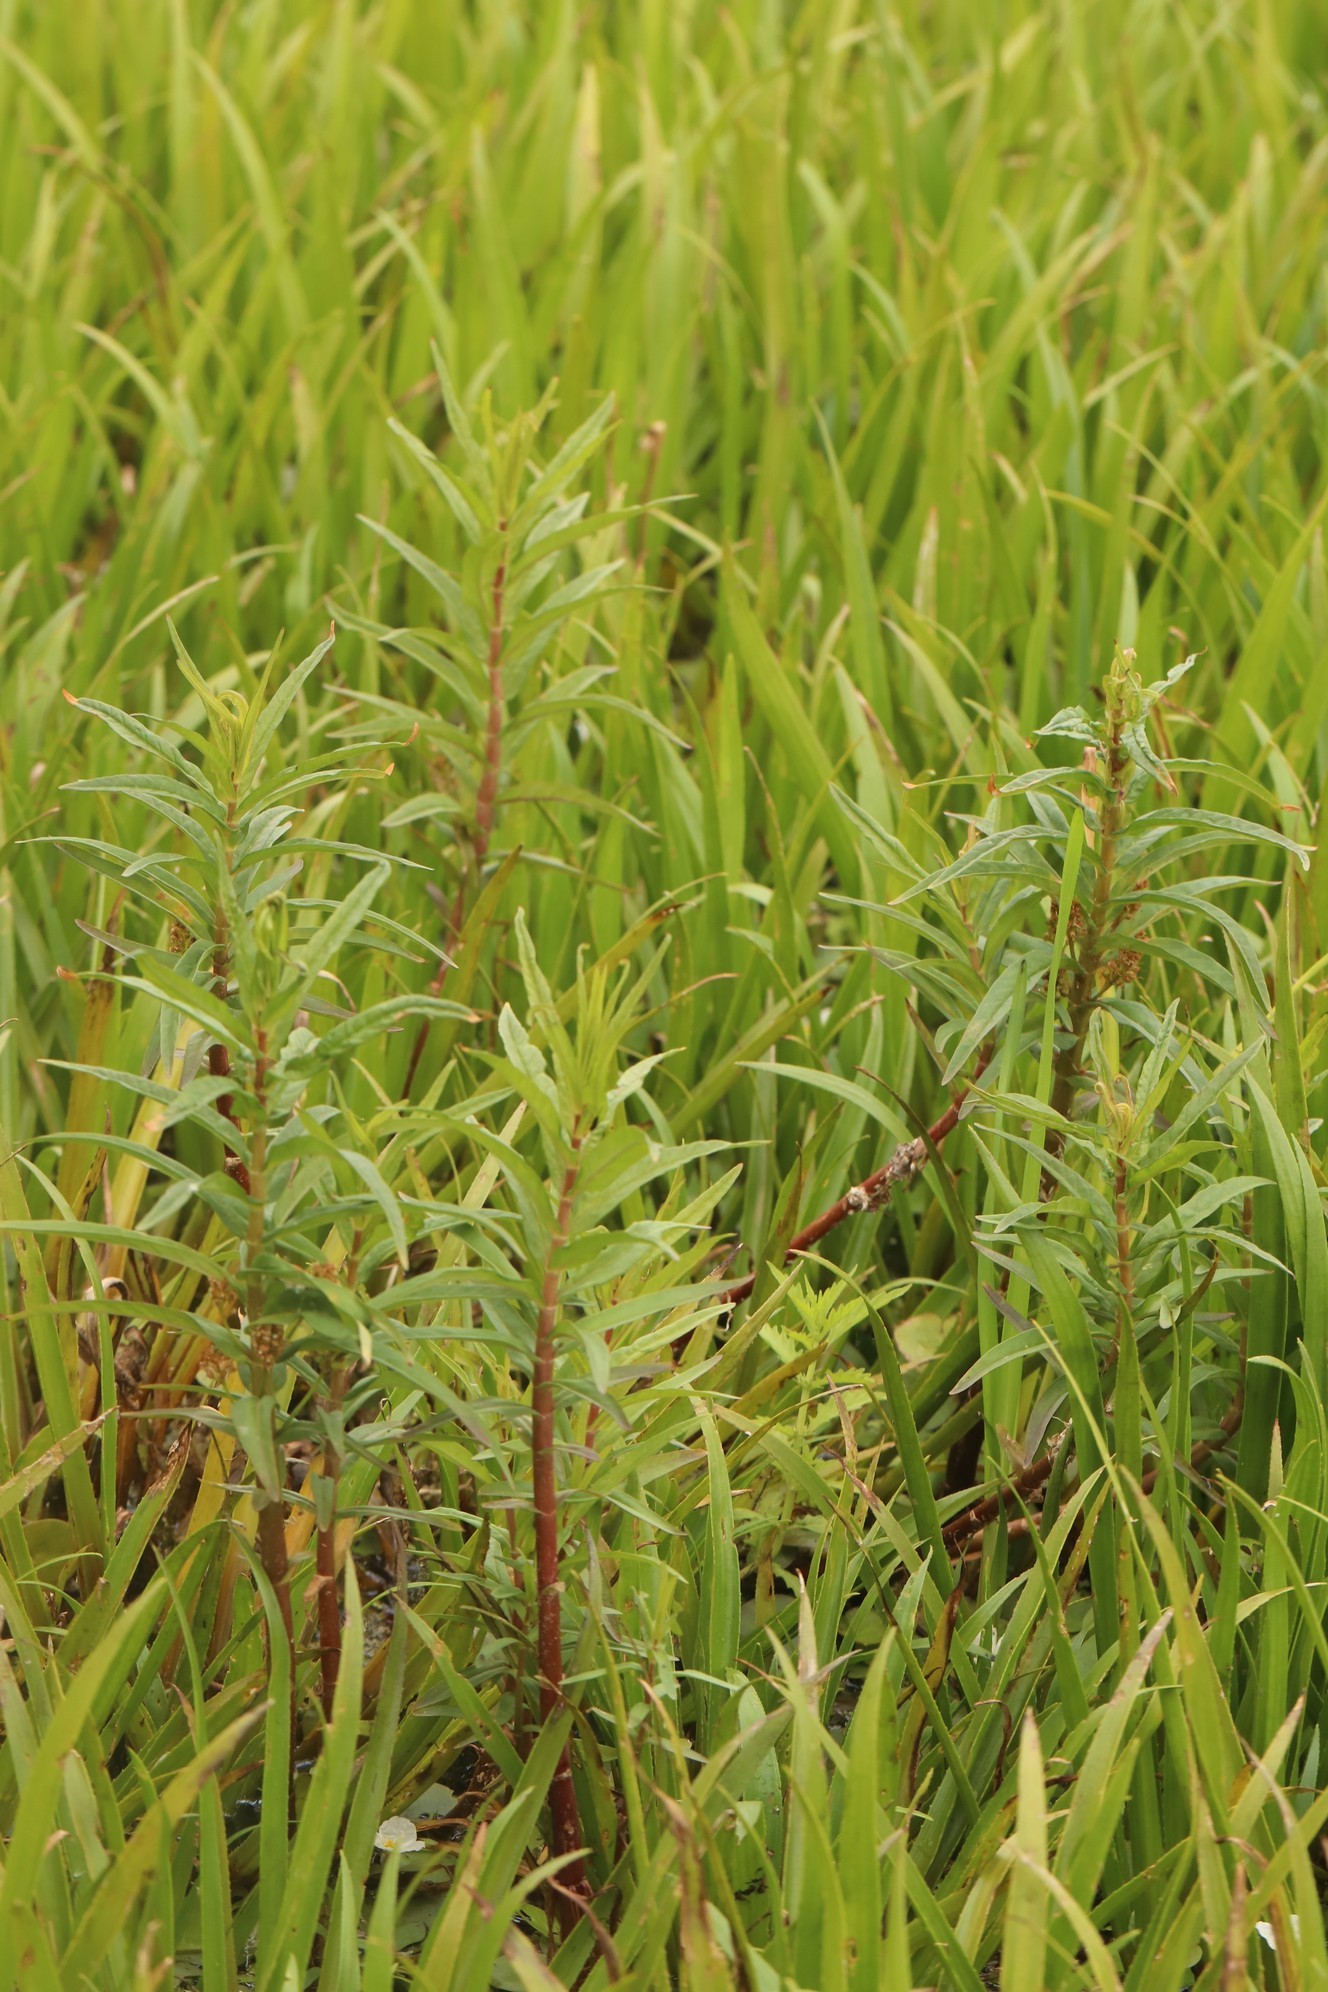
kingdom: Plantae
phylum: Tracheophyta
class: Magnoliopsida
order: Ericales
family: Primulaceae
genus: Lysimachia
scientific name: Lysimachia thyrsiflora
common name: Tufted loosestrife
